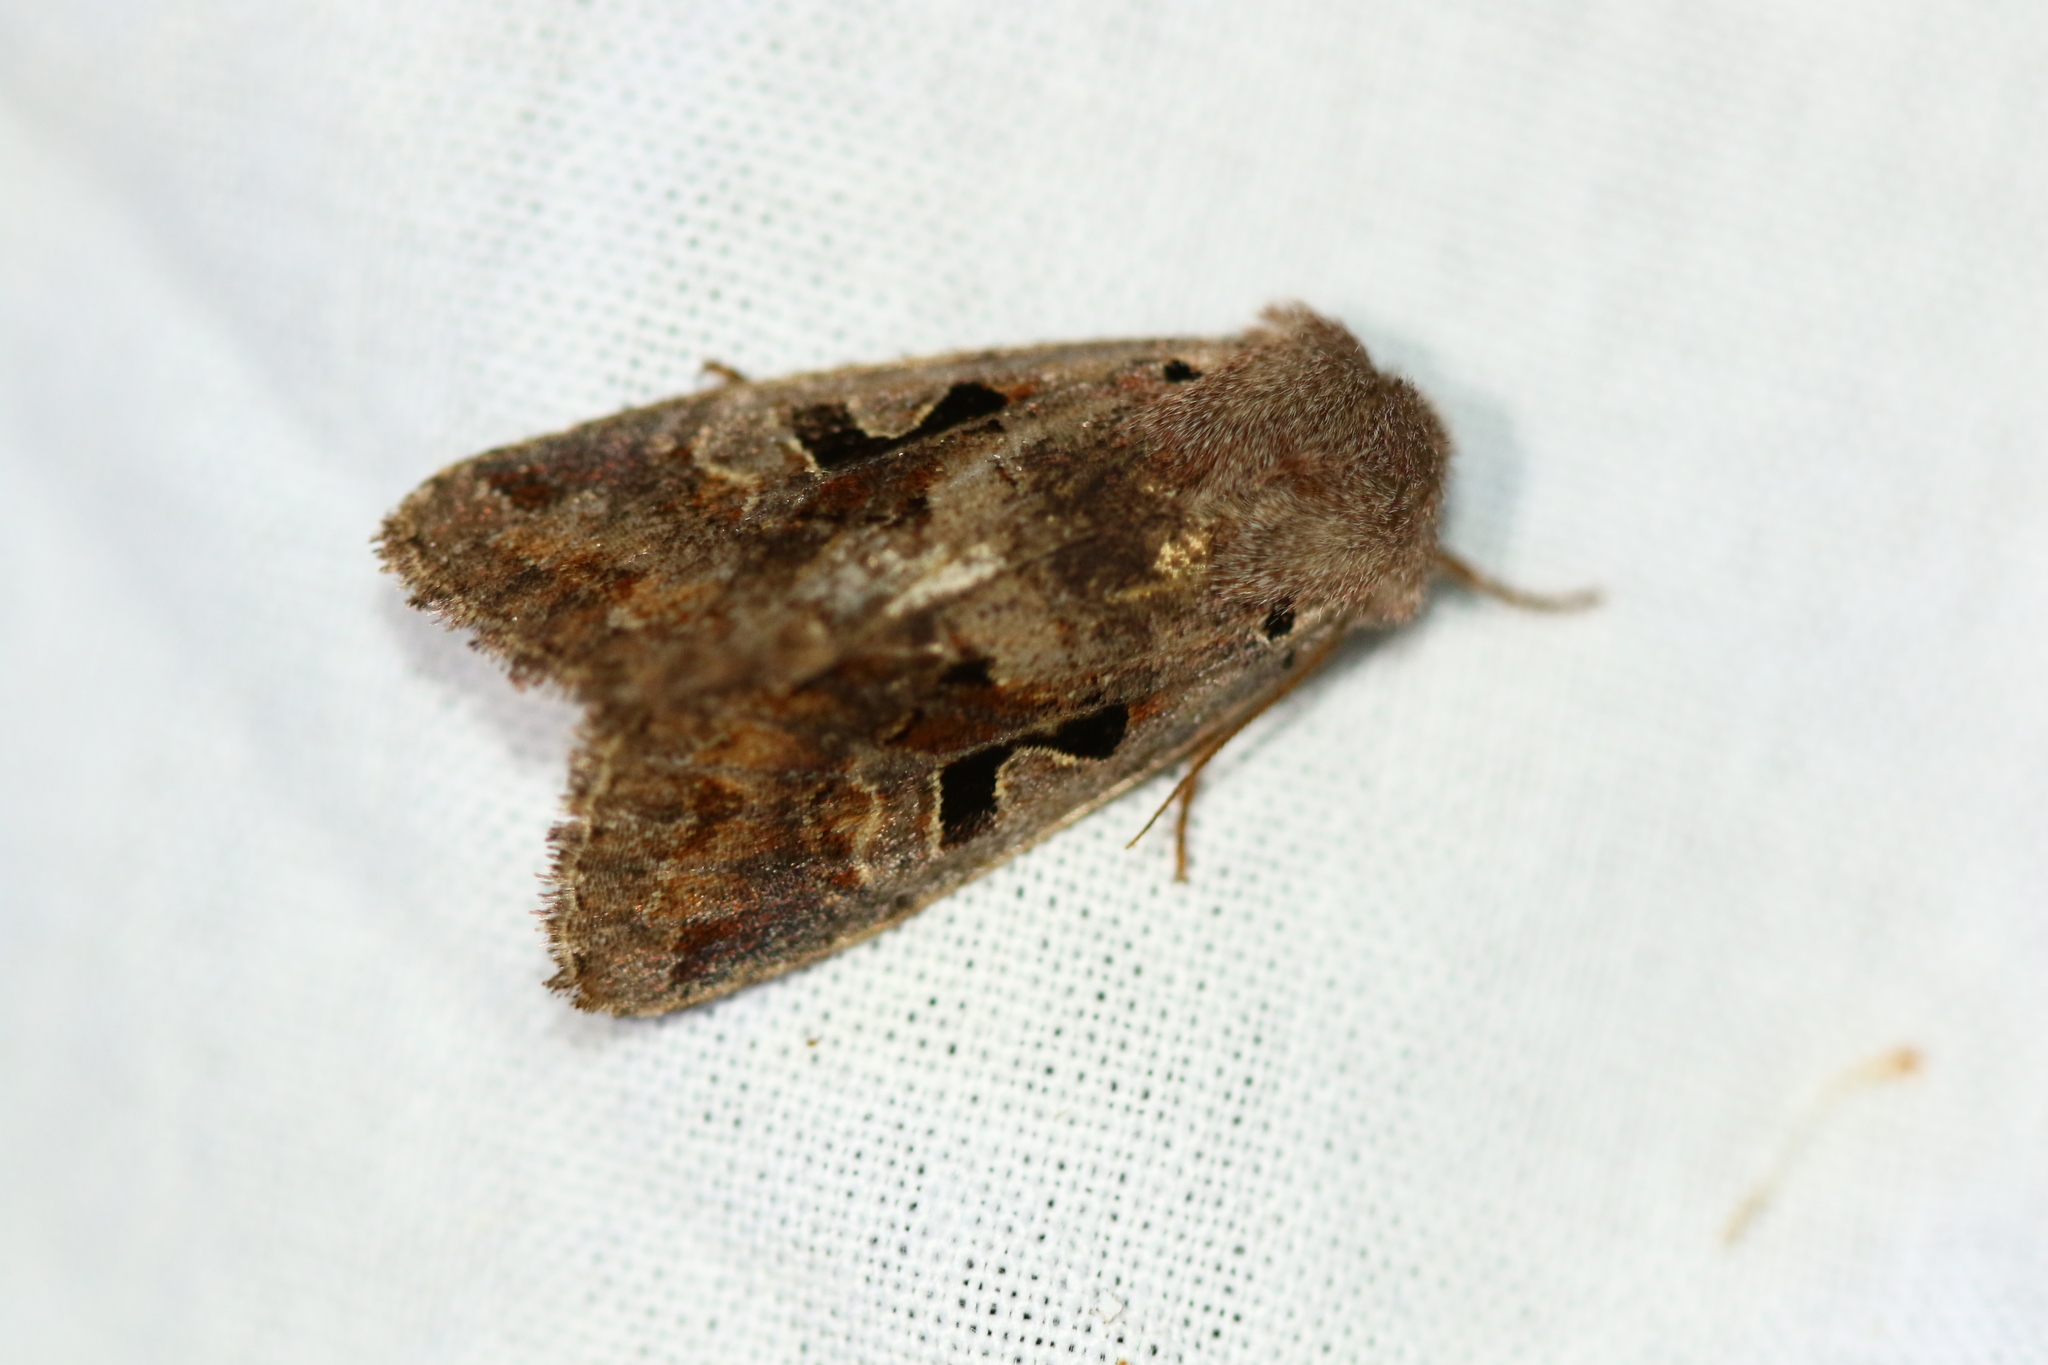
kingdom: Animalia
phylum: Arthropoda
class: Insecta
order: Lepidoptera
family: Noctuidae
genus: Orthosia
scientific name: Orthosia gothica
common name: Hebrew character
